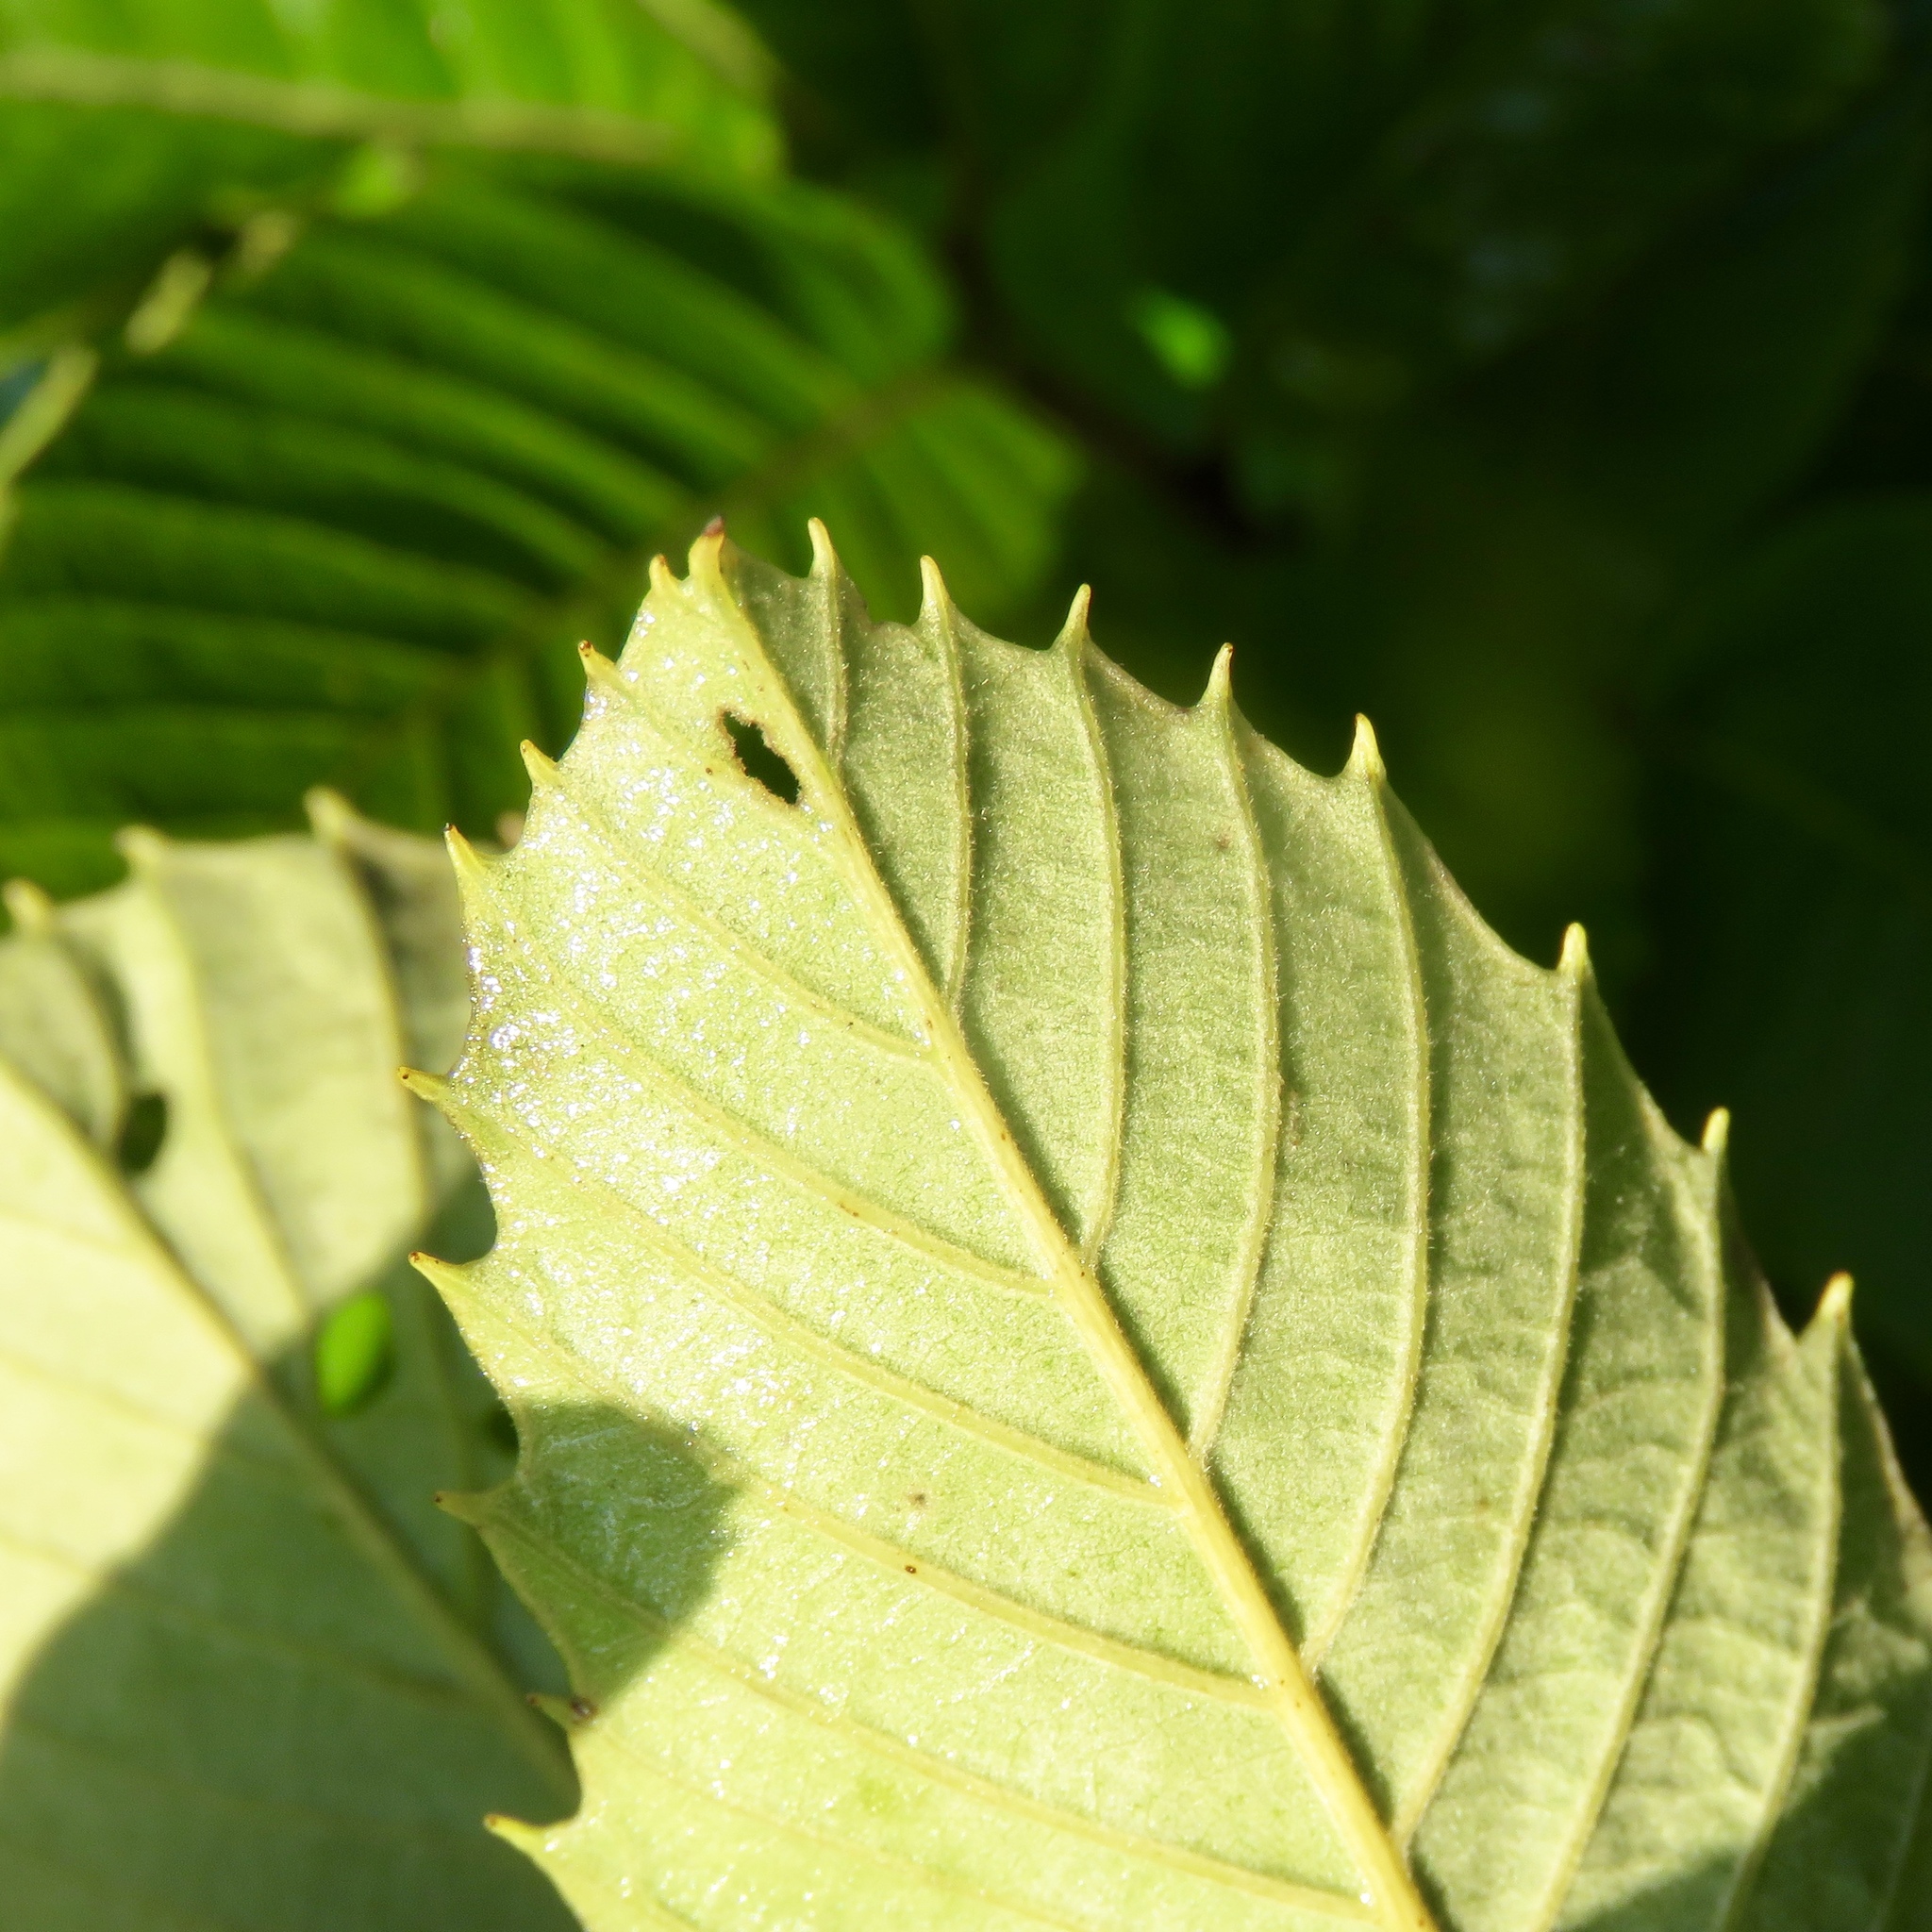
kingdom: Plantae
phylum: Tracheophyta
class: Magnoliopsida
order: Fagales
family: Fagaceae
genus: Castanea
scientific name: Castanea pumila
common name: Chinkapin
